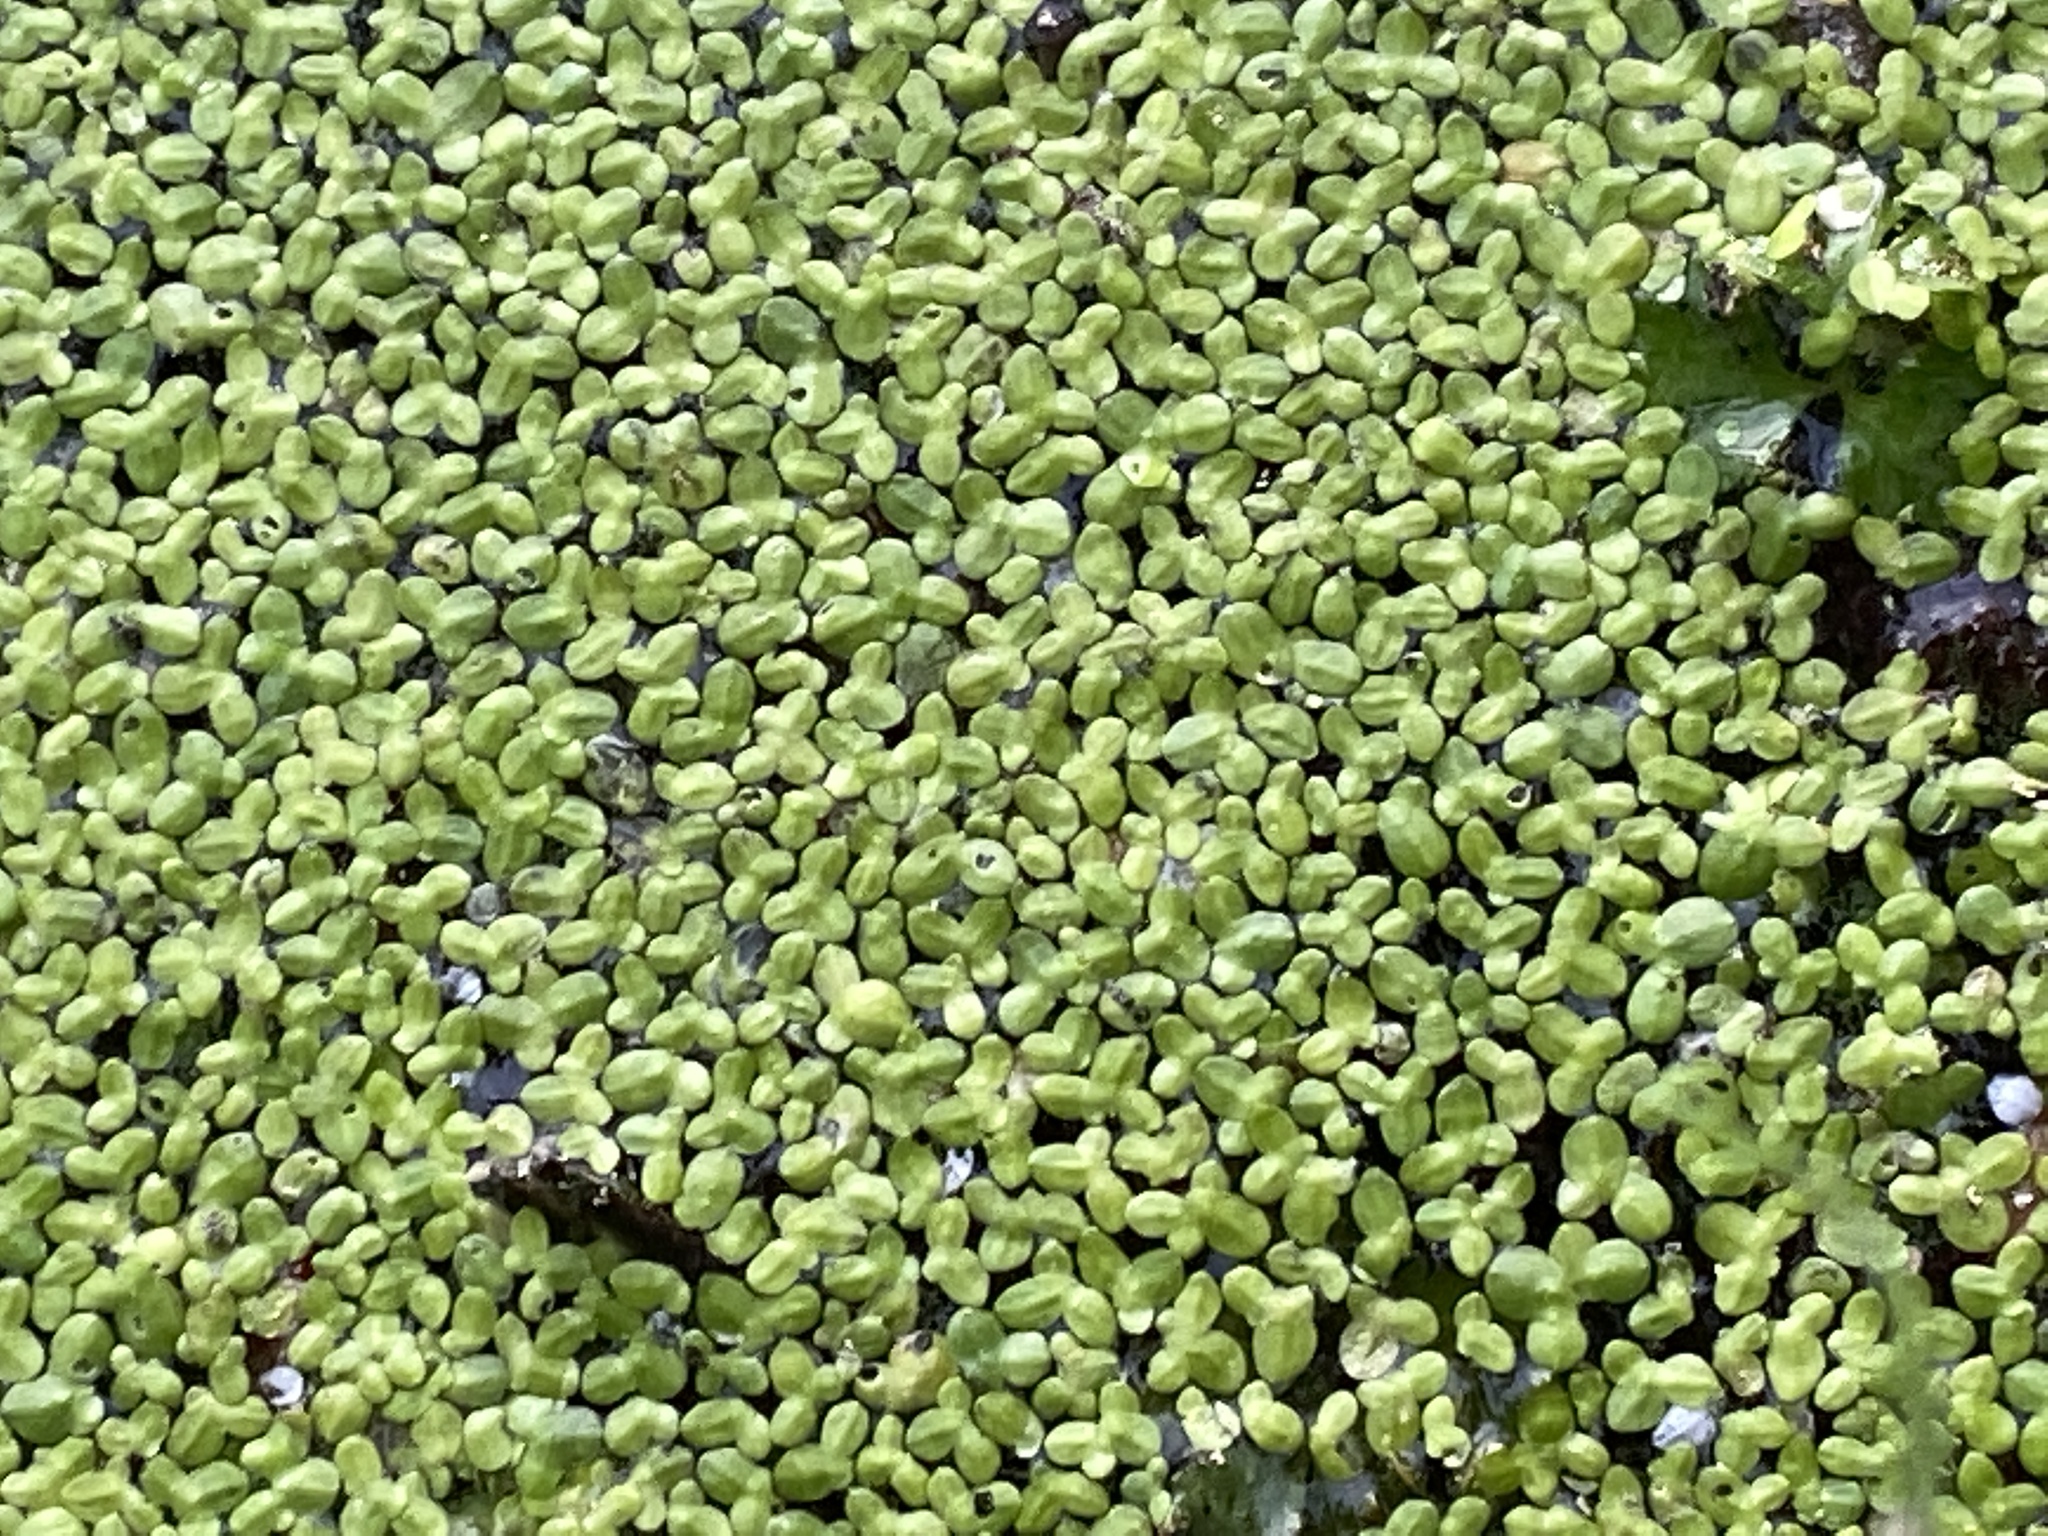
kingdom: Plantae
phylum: Tracheophyta
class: Liliopsida
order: Alismatales
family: Araceae
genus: Lemna
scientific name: Lemna minor
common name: Common duckweed
